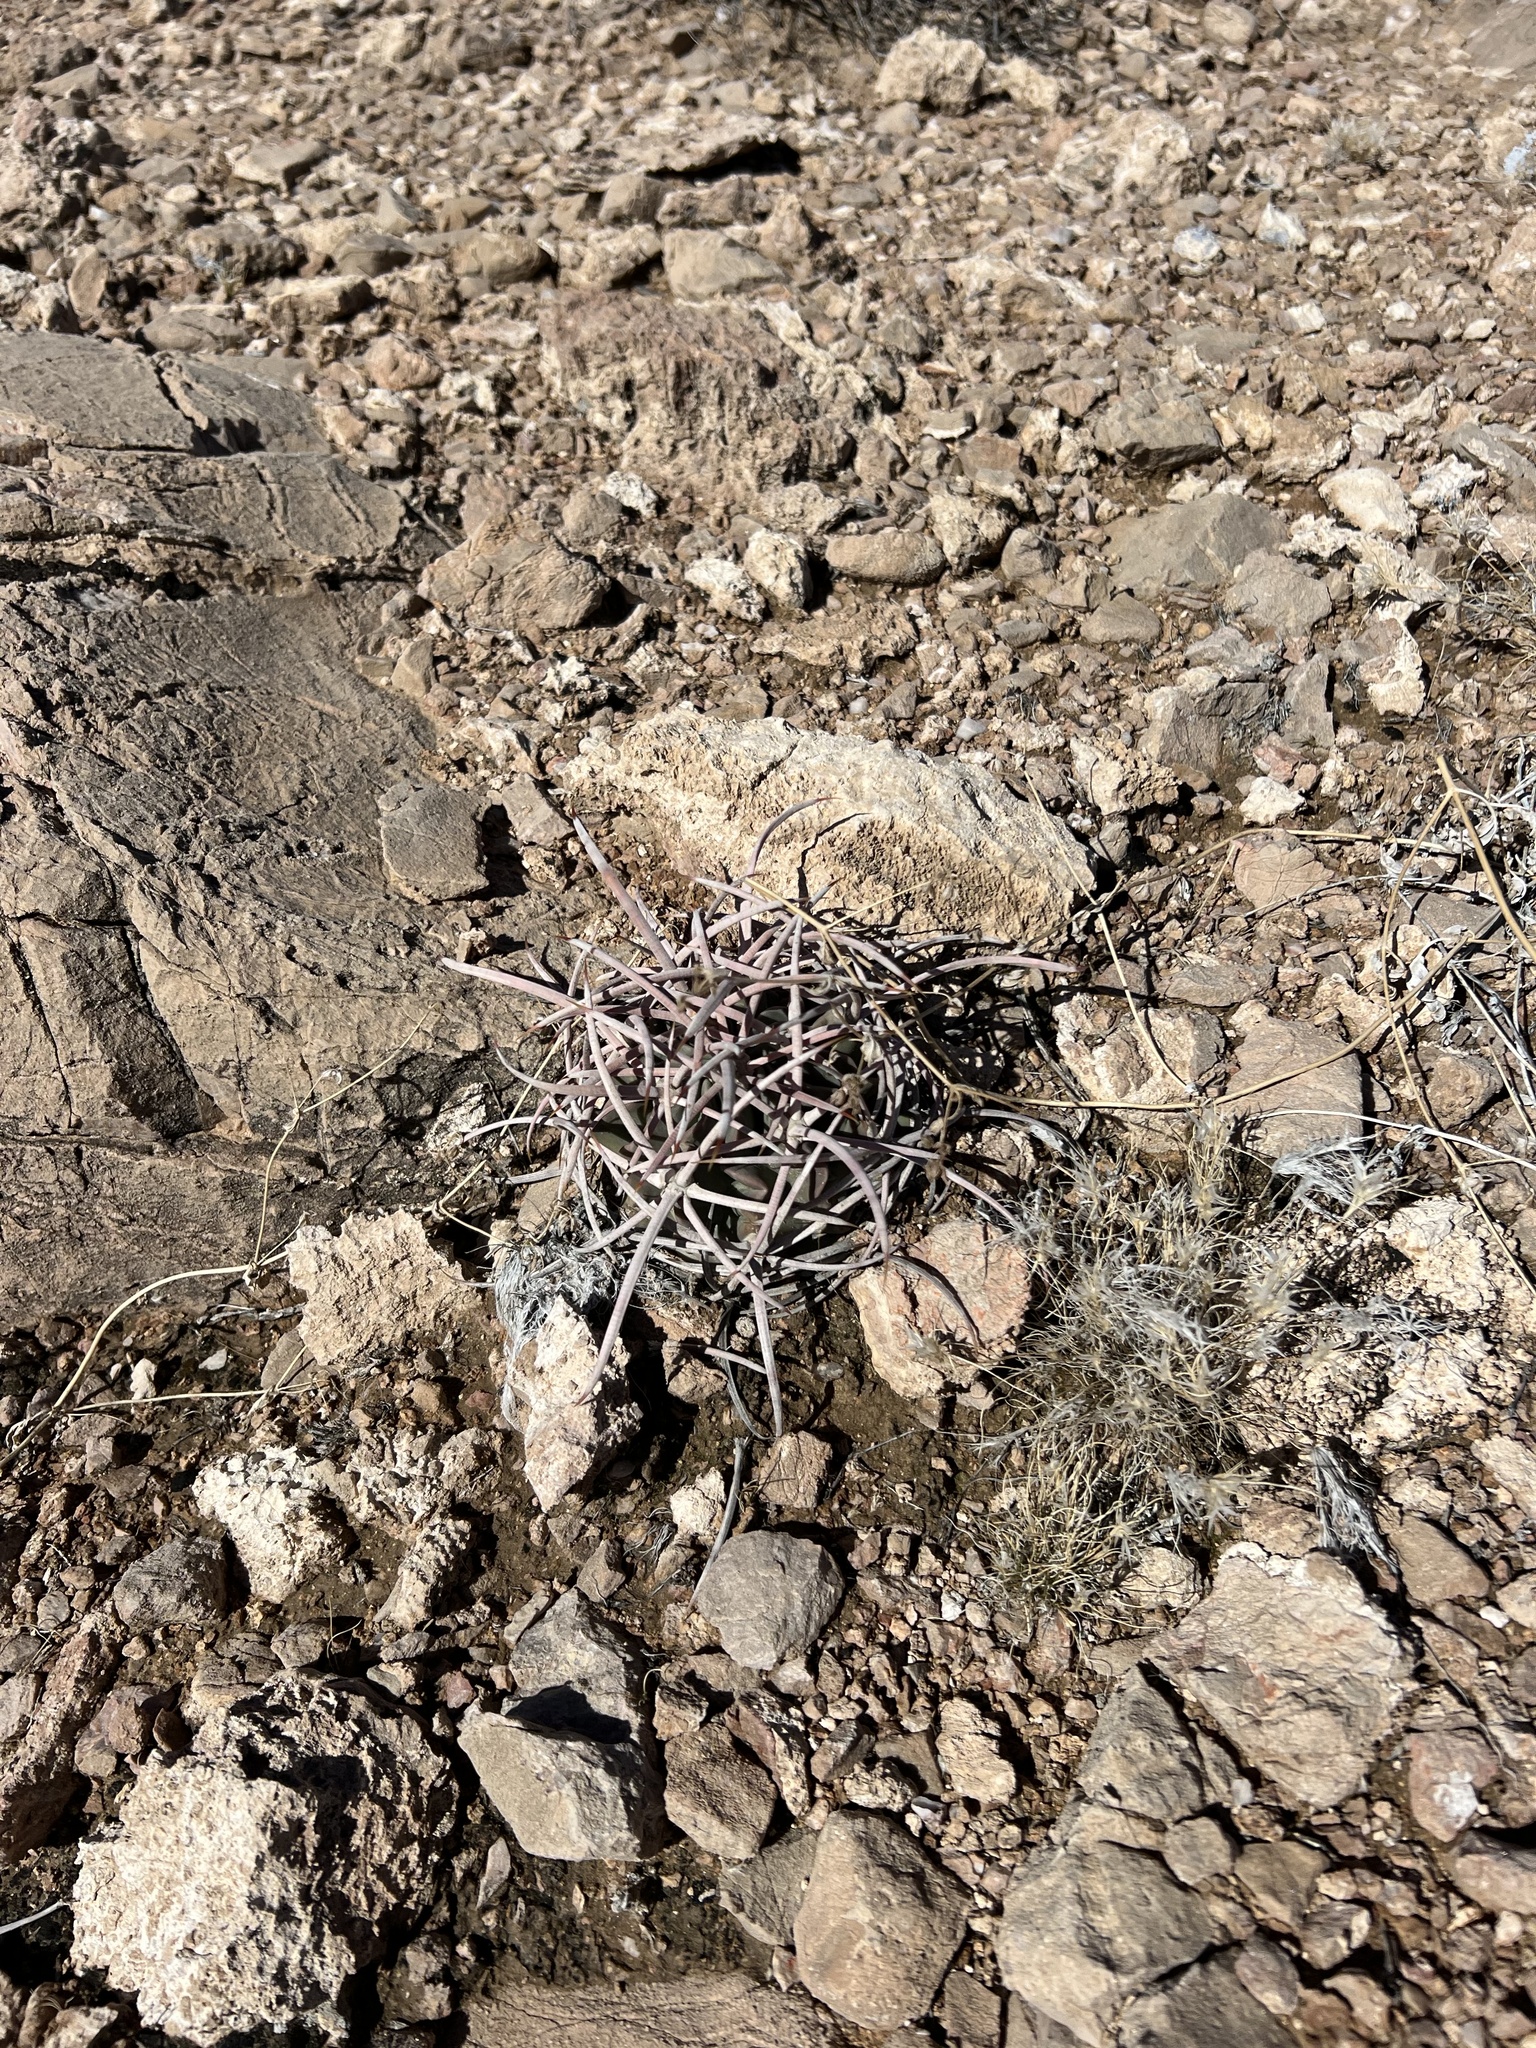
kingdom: Plantae
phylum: Tracheophyta
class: Magnoliopsida
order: Caryophyllales
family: Cactaceae
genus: Echinocactus
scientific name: Echinocactus polycephalus
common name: Cottontop cactus
